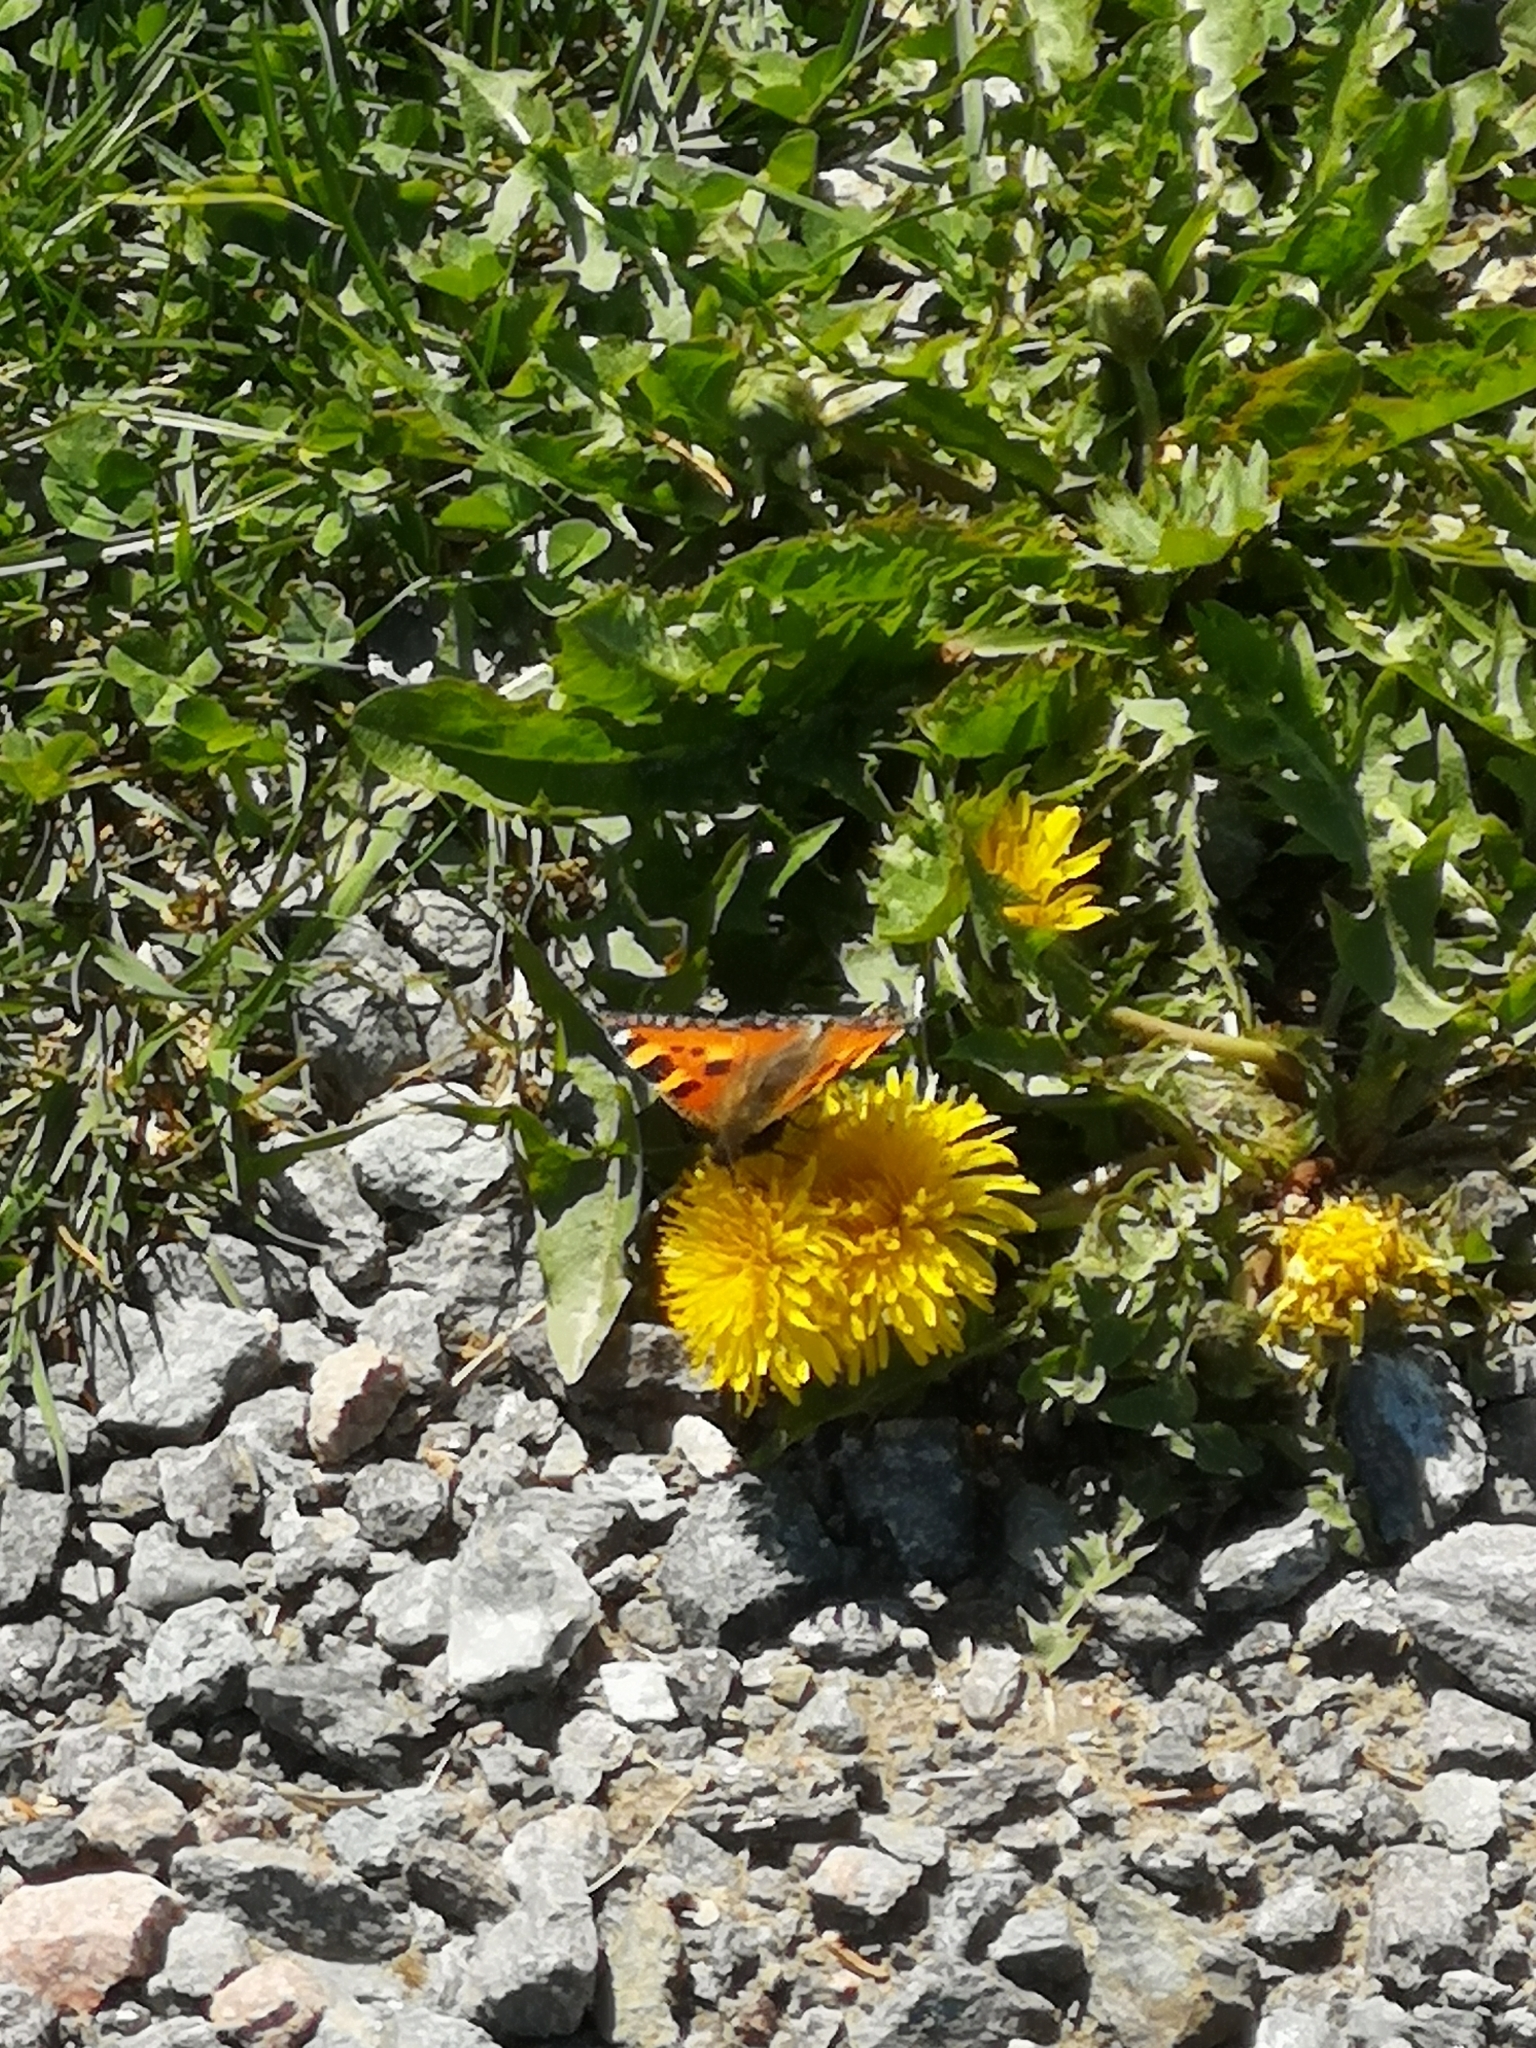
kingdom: Animalia
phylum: Arthropoda
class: Insecta
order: Lepidoptera
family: Nymphalidae
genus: Aglais
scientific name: Aglais urticae
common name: Small tortoiseshell
